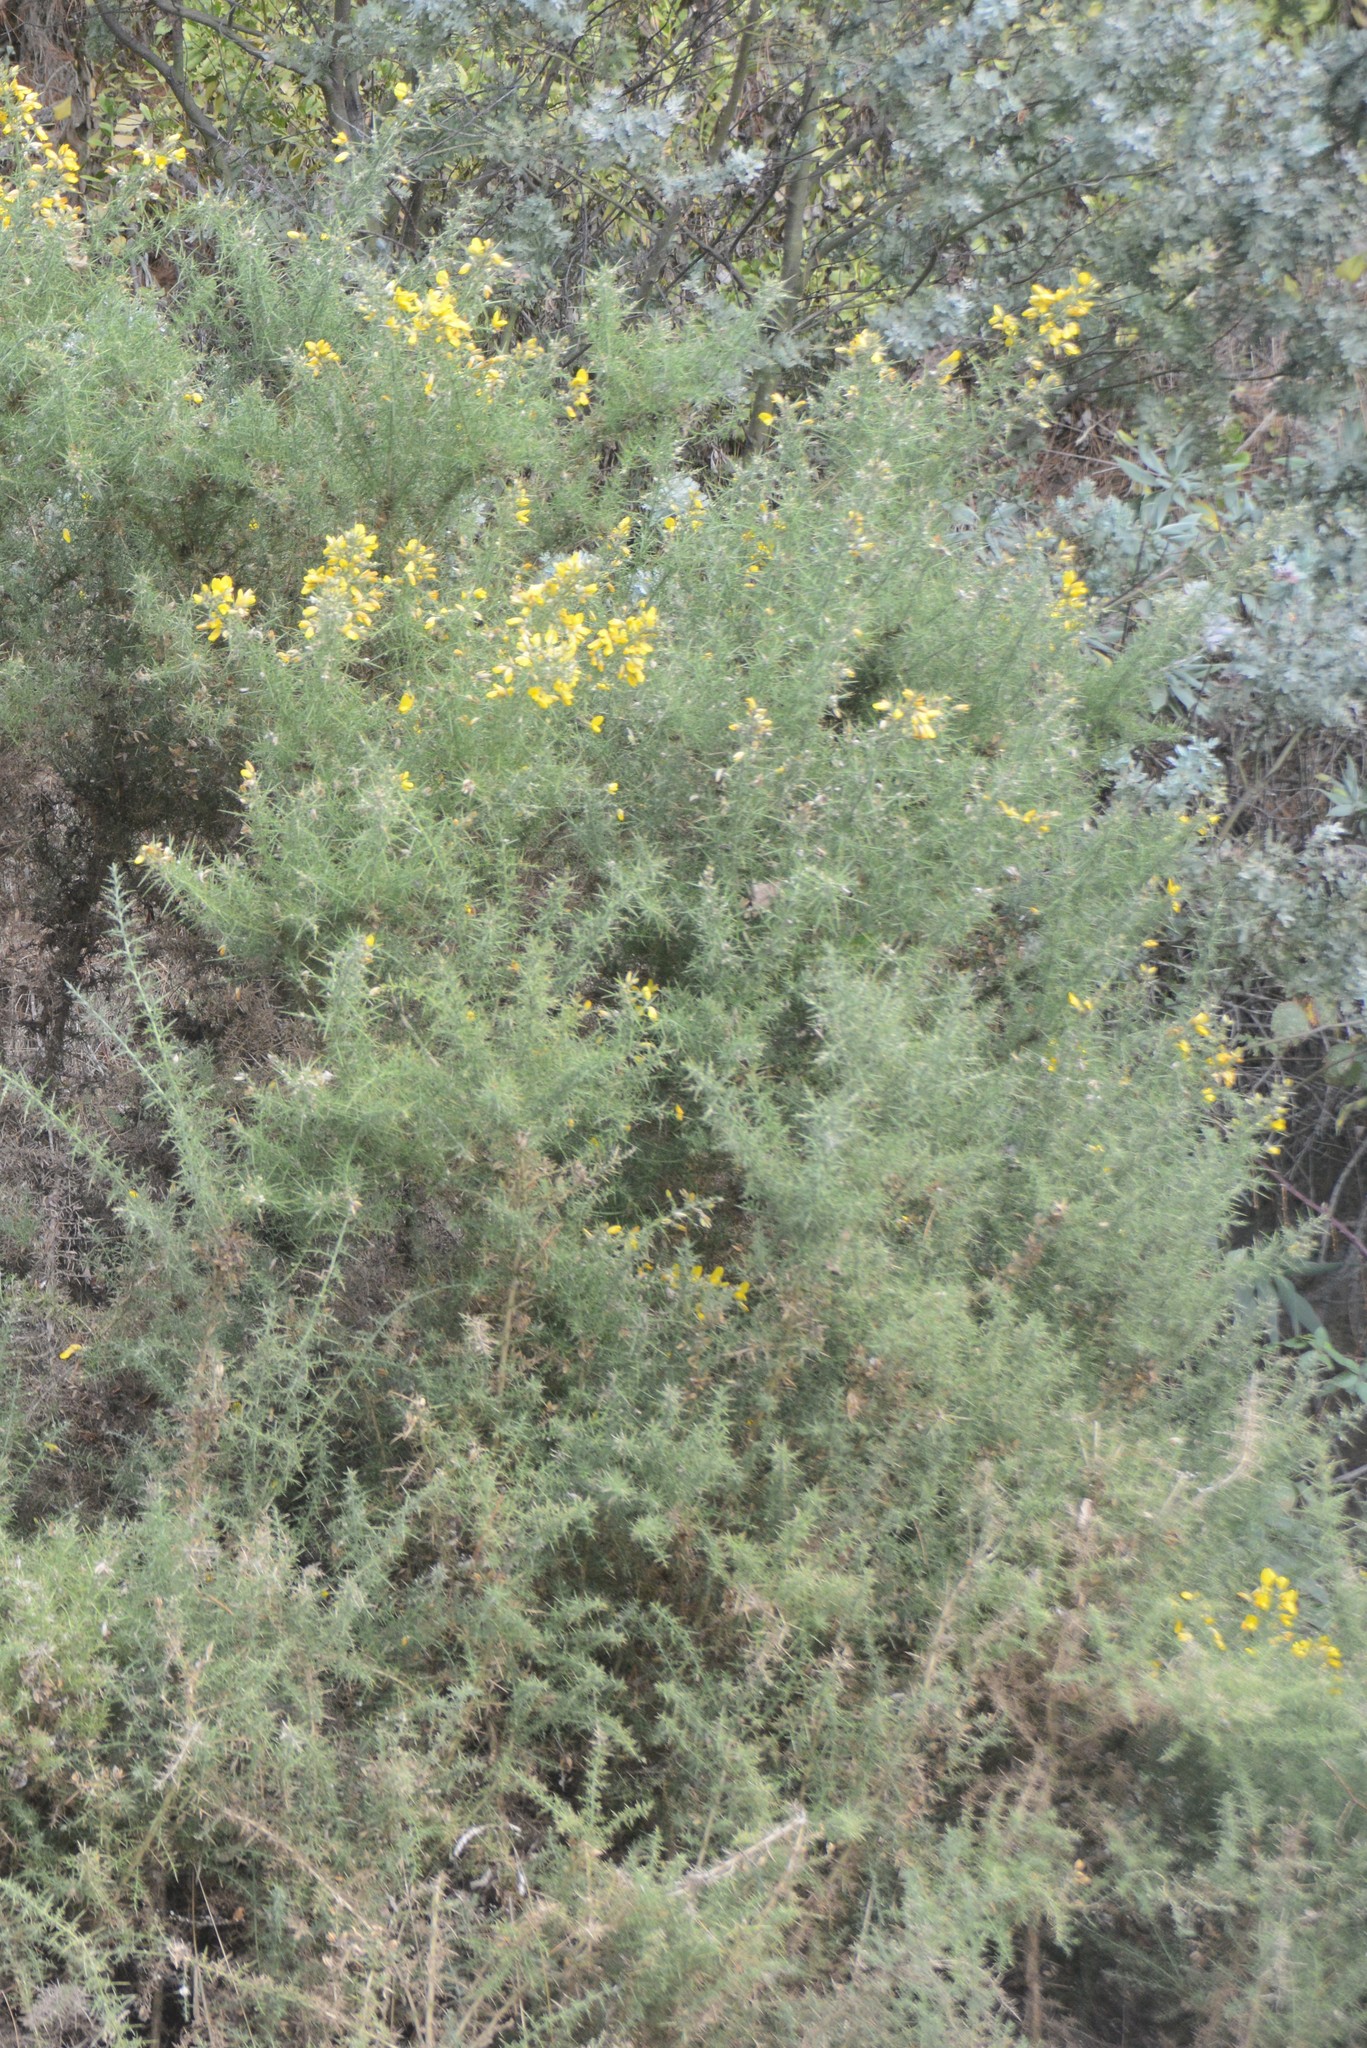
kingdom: Plantae
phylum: Tracheophyta
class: Magnoliopsida
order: Fabales
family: Fabaceae
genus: Ulex
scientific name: Ulex europaeus
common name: Common gorse
